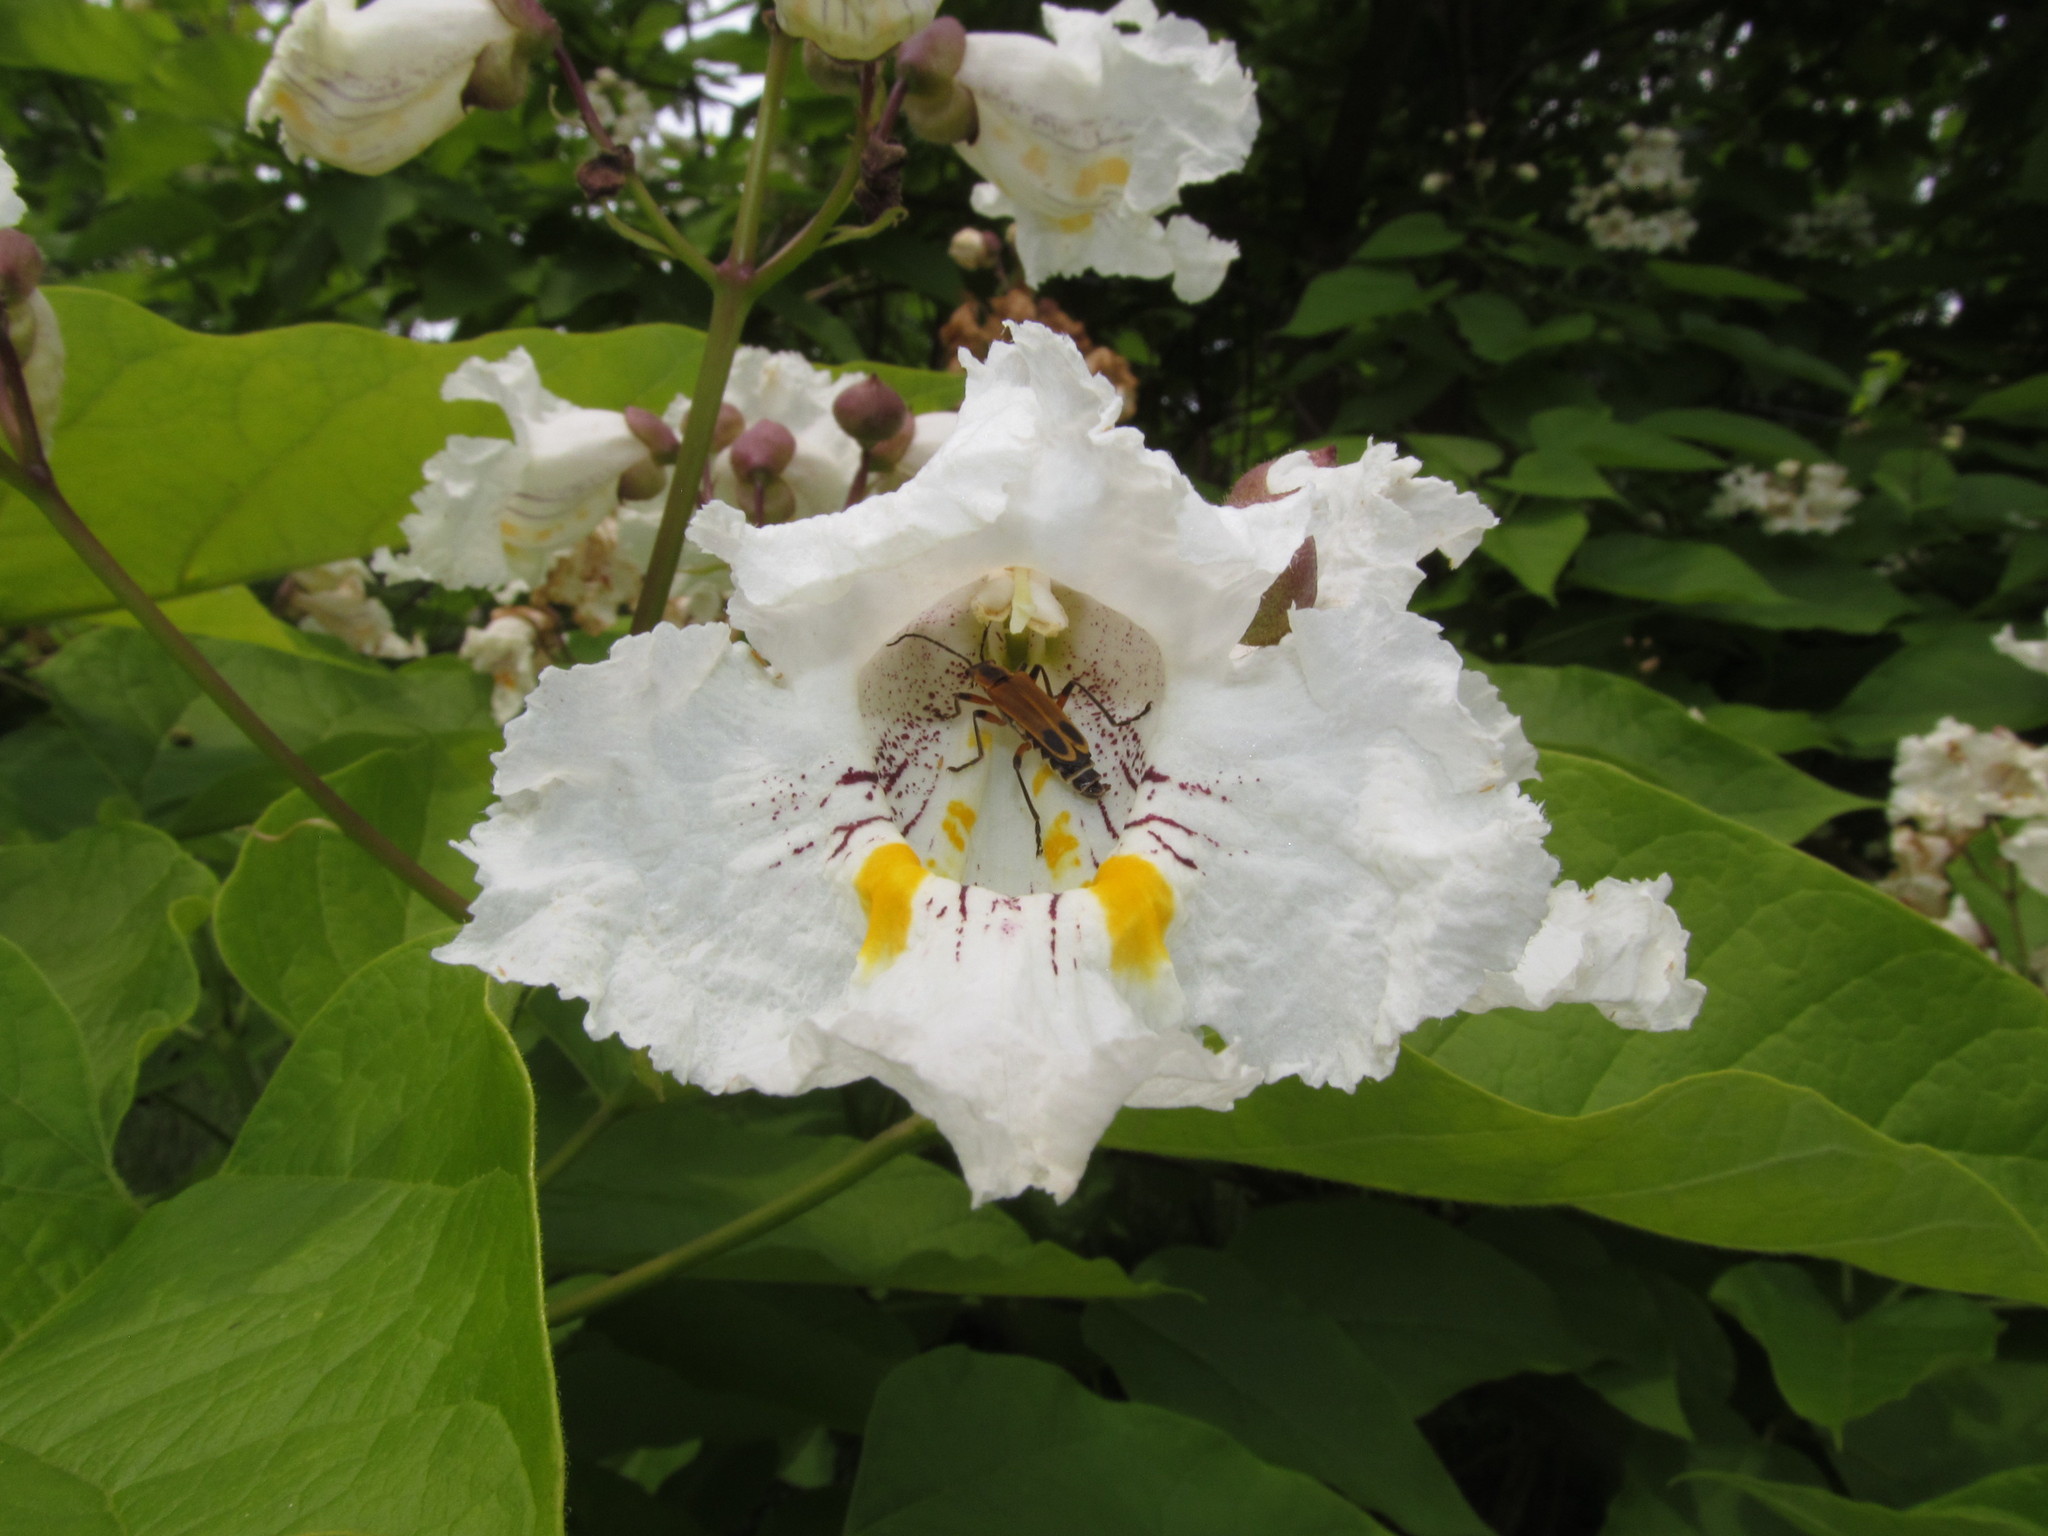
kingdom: Animalia
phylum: Arthropoda
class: Insecta
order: Coleoptera
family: Cantharidae
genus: Chauliognathus
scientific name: Chauliognathus marginatus
